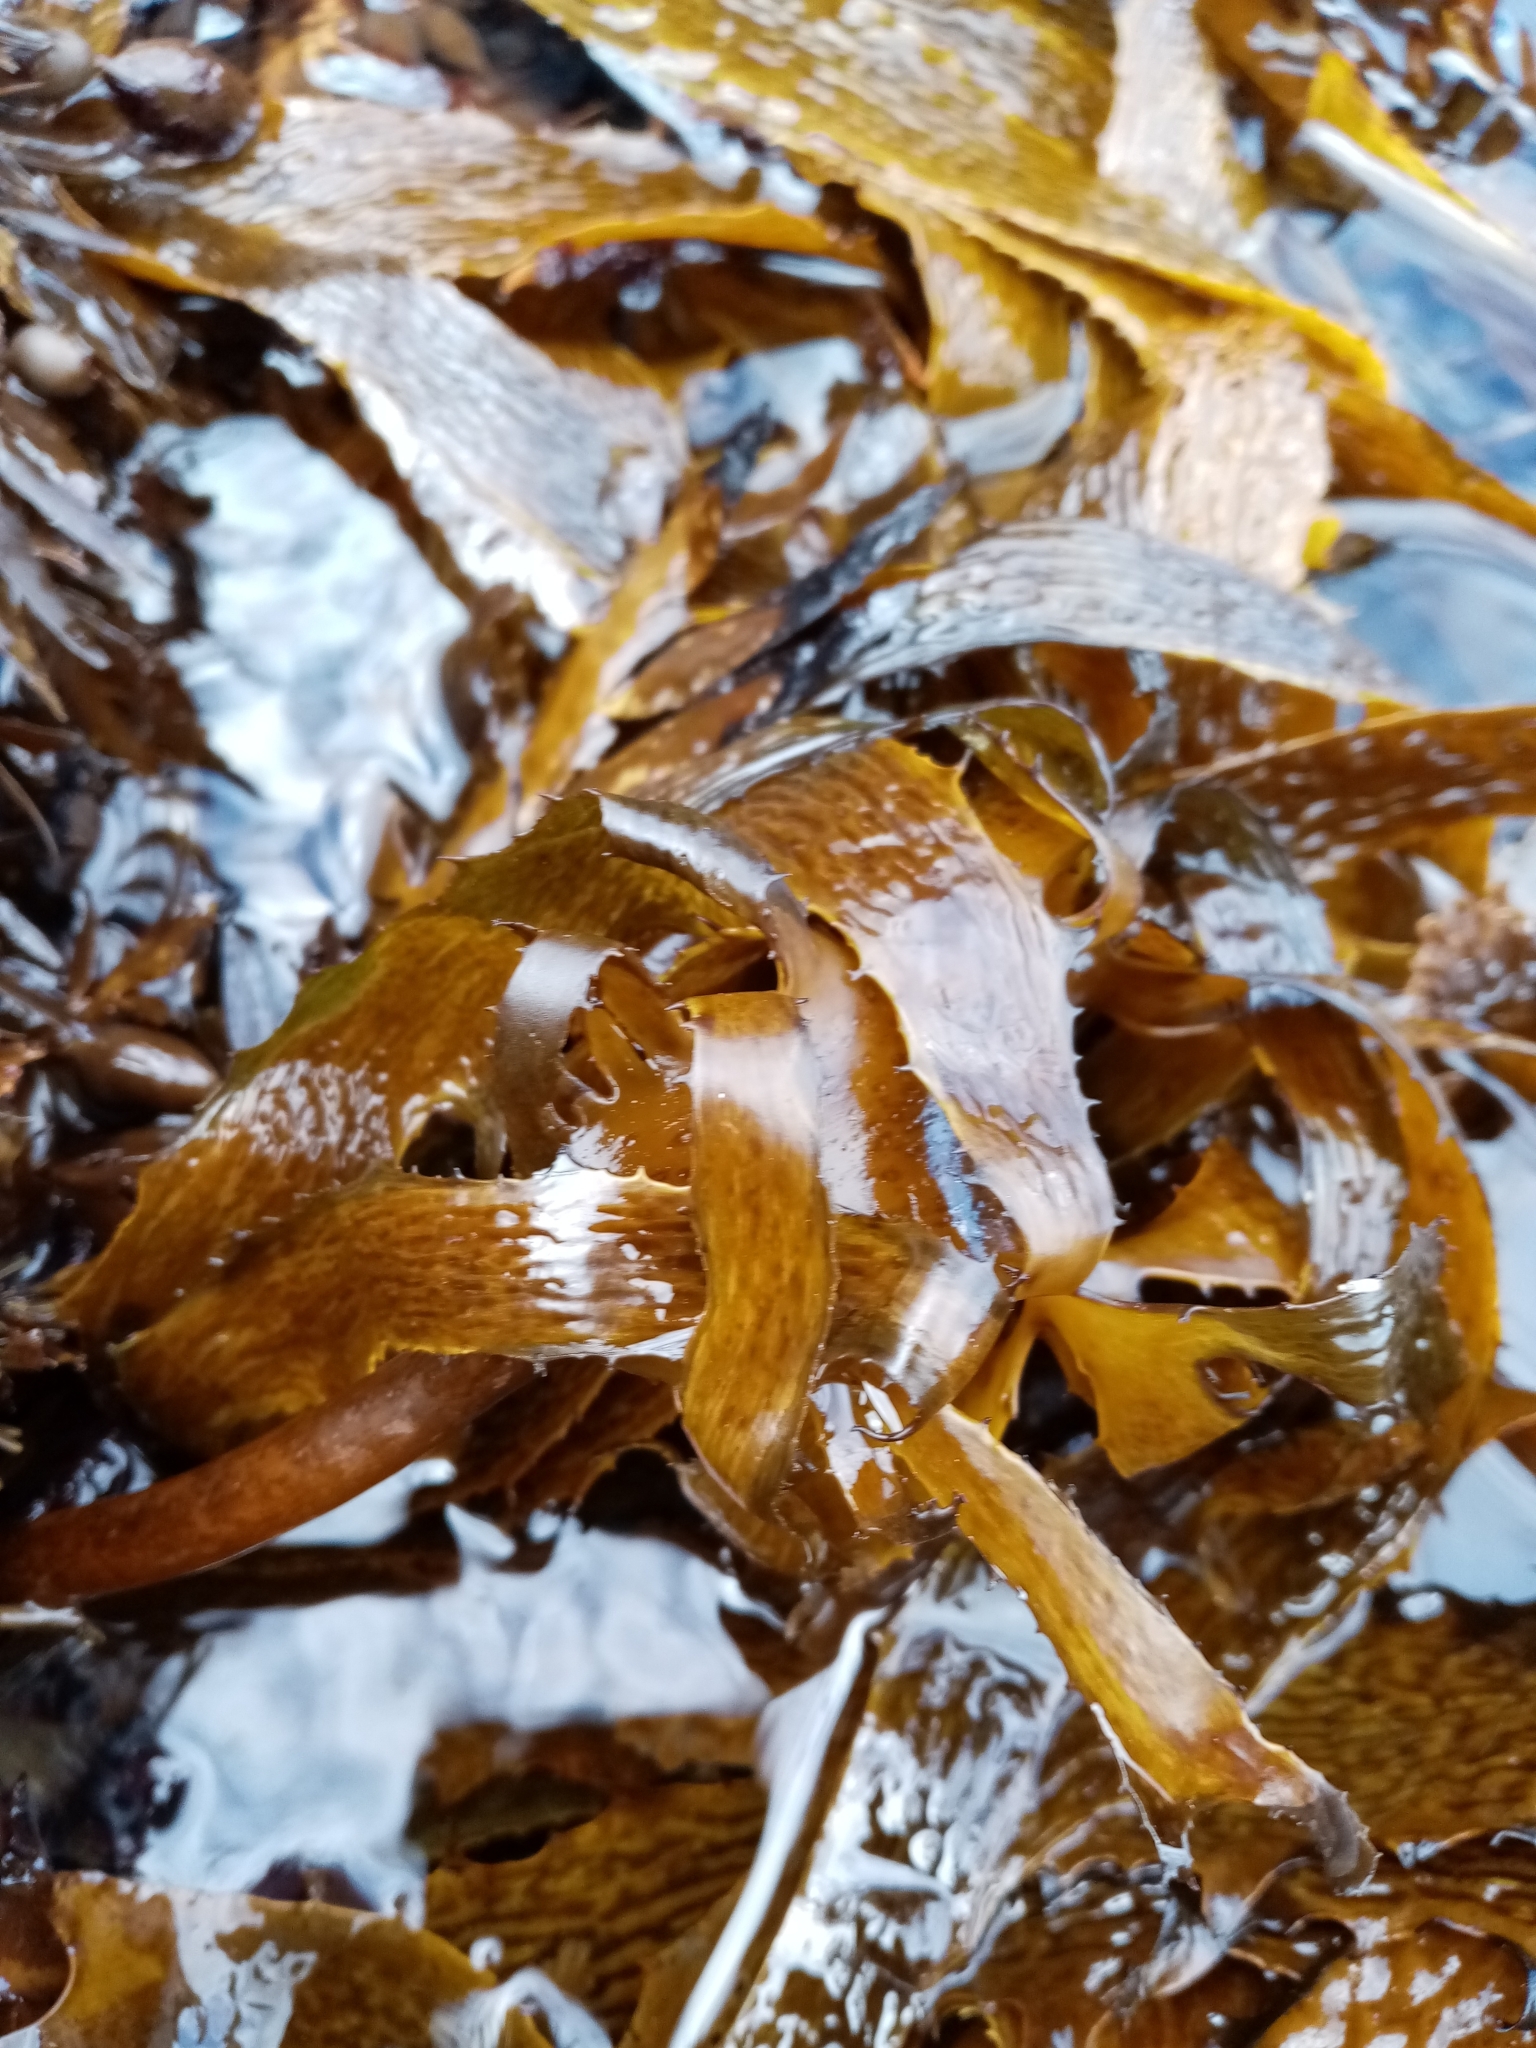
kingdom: Chromista
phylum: Ochrophyta
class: Phaeophyceae
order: Laminariales
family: Lessoniaceae
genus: Ecklonia
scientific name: Ecklonia radiata
